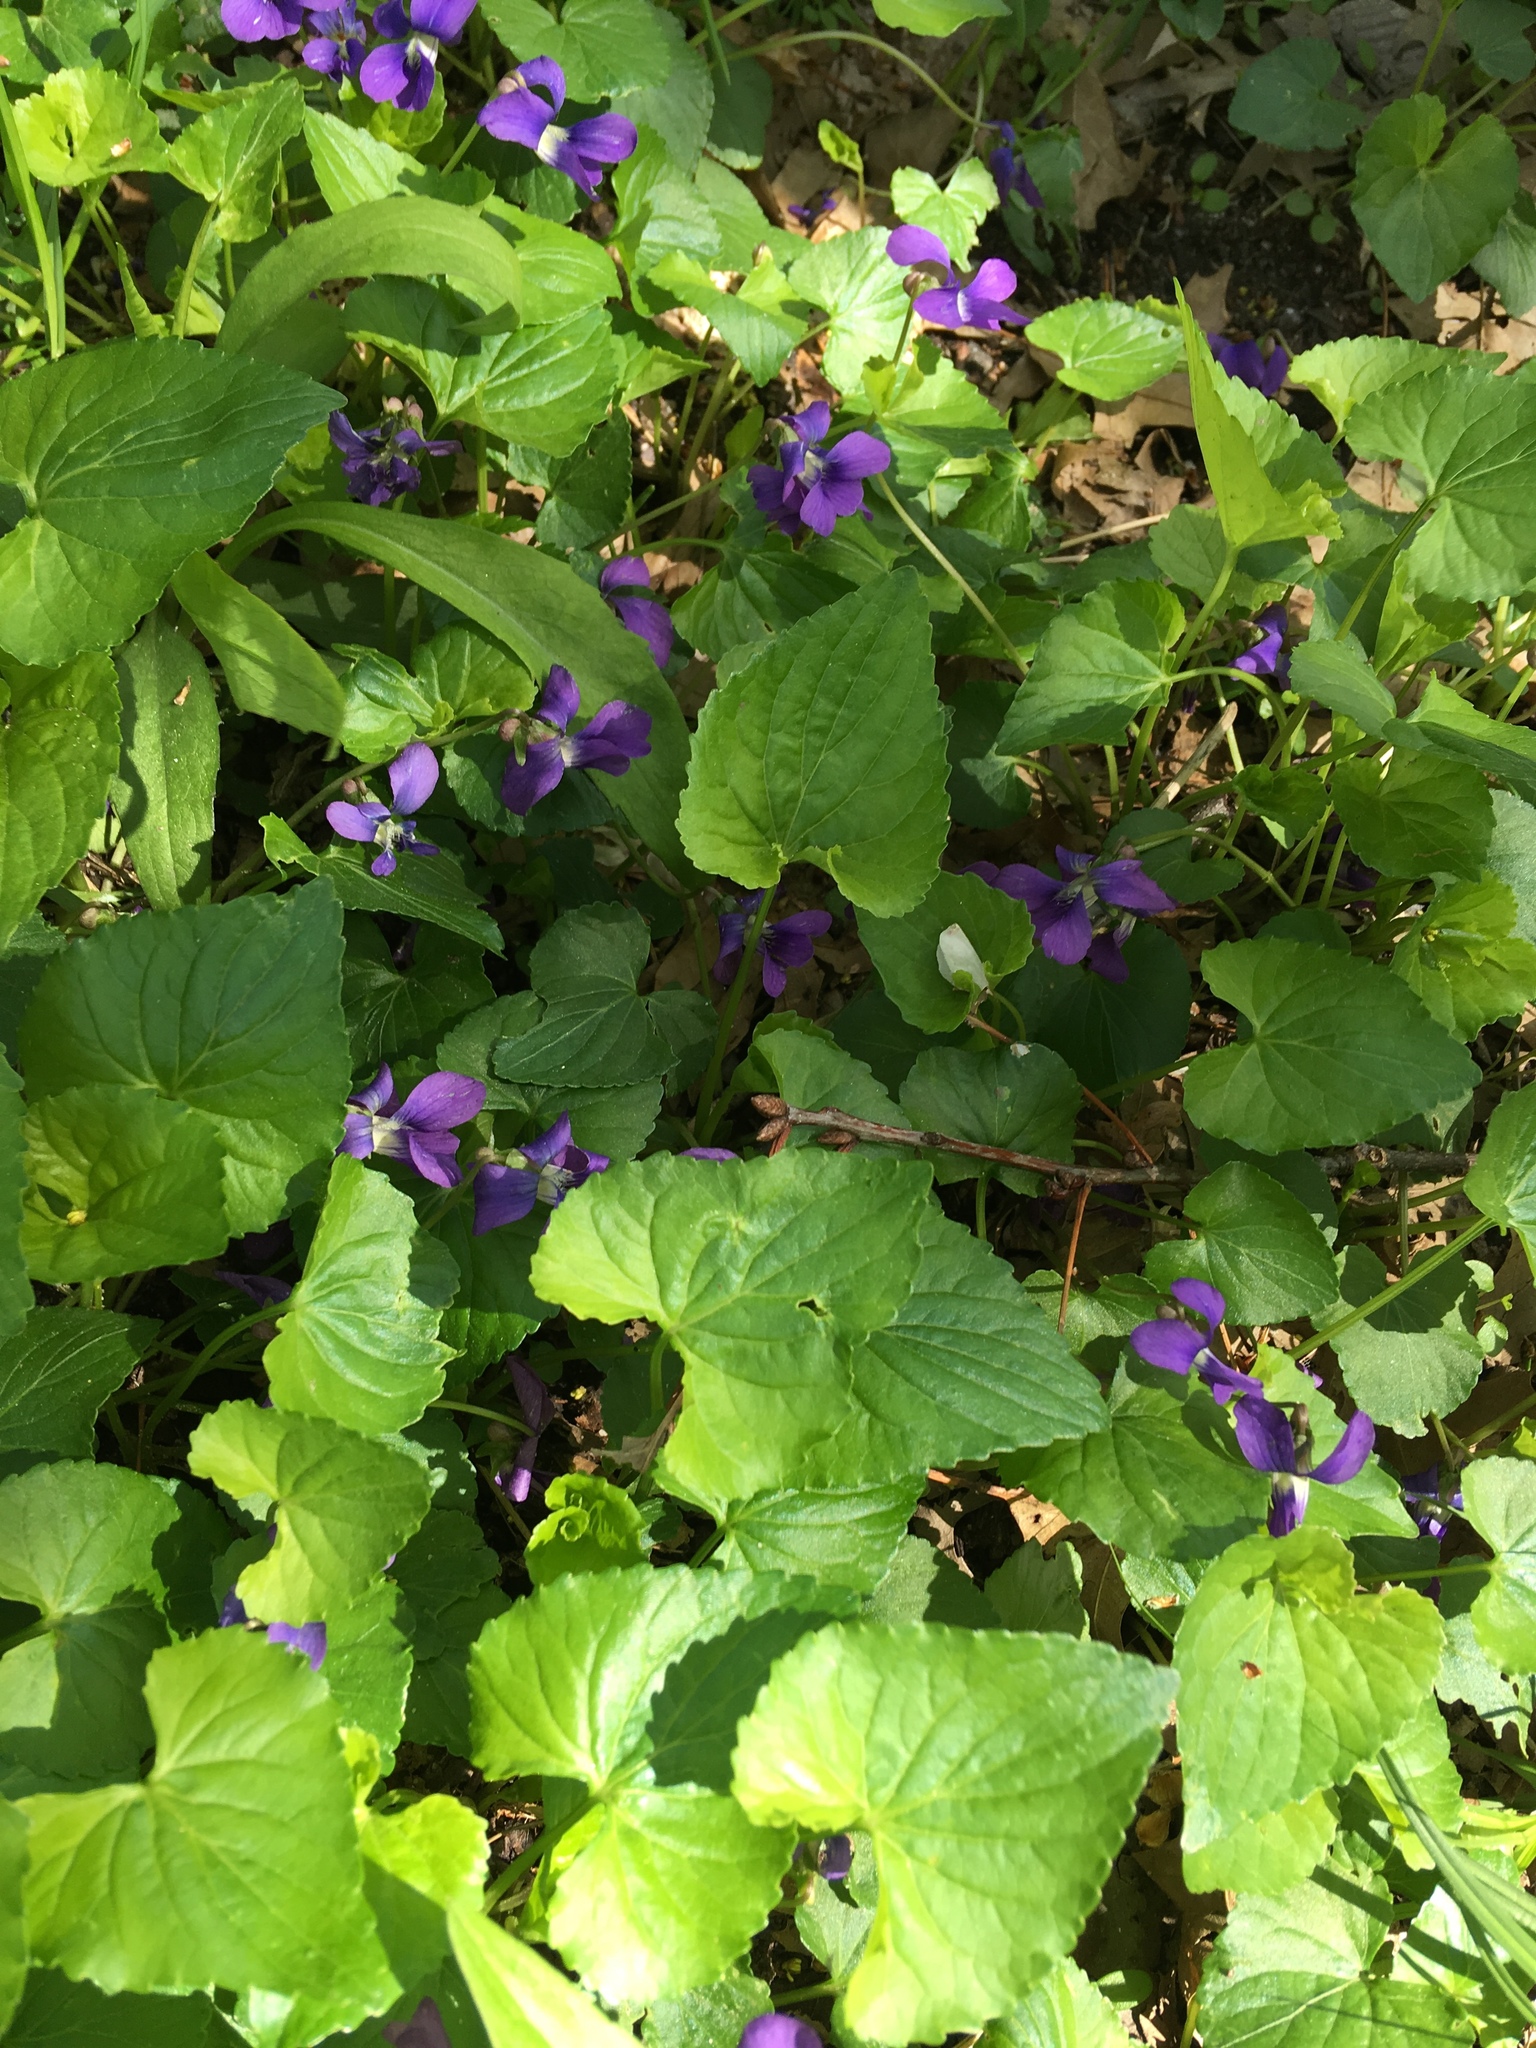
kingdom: Plantae
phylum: Tracheophyta
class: Magnoliopsida
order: Malpighiales
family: Violaceae
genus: Viola
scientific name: Viola sororia
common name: Dooryard violet
